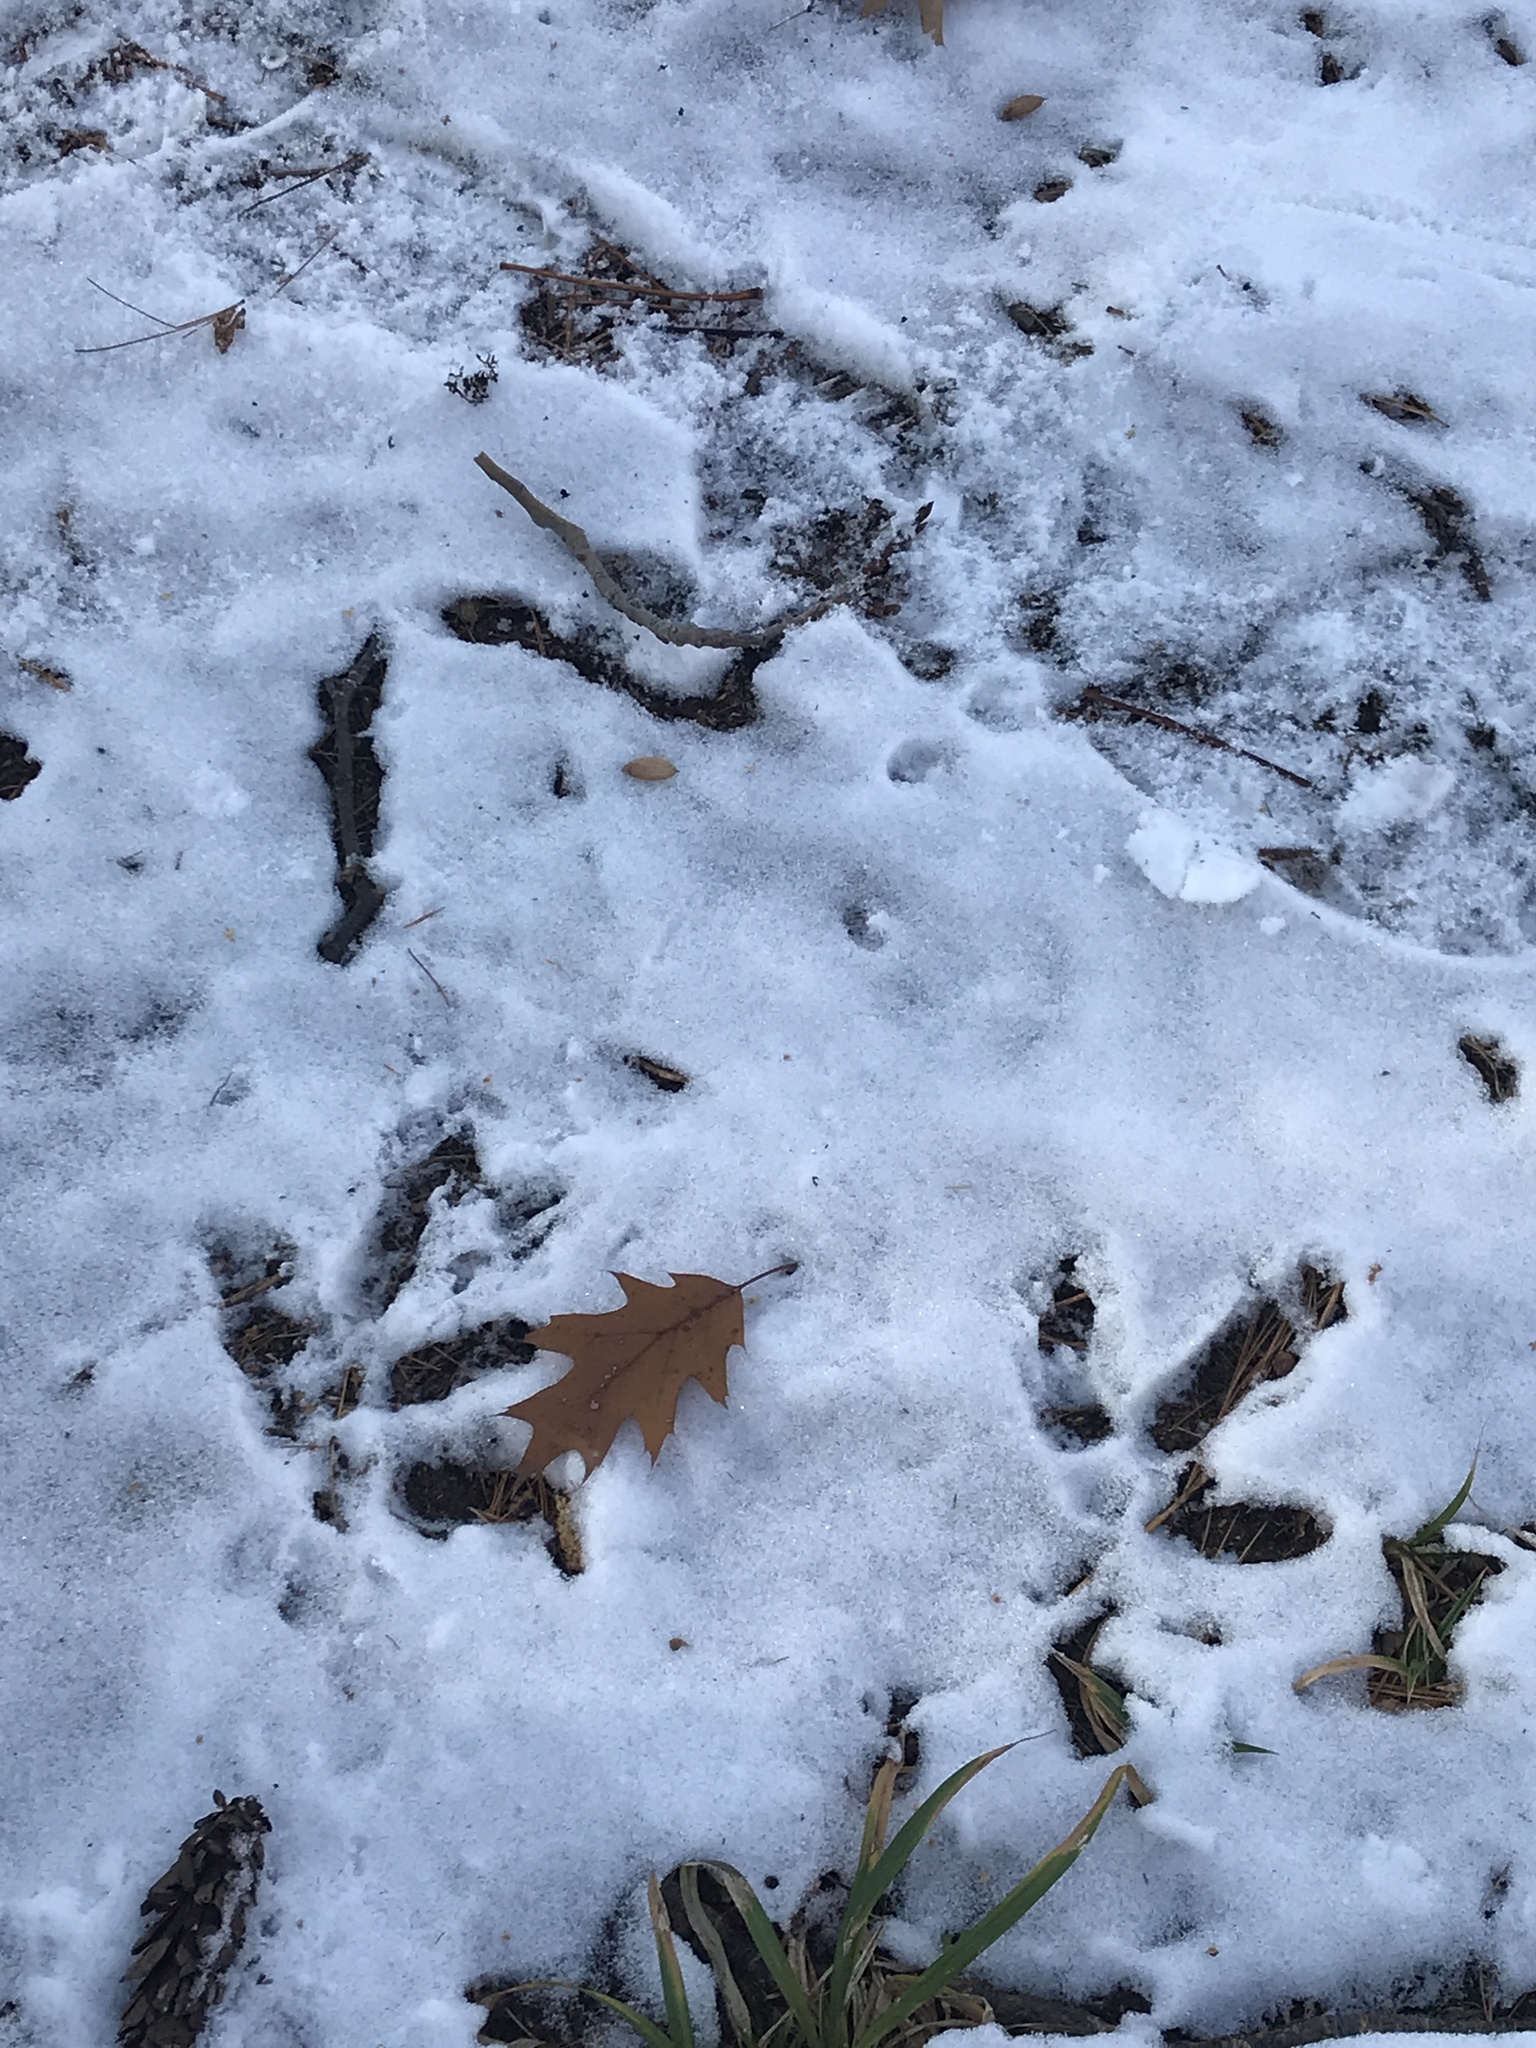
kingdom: Animalia
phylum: Chordata
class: Aves
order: Galliformes
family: Phasianidae
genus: Meleagris
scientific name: Meleagris gallopavo
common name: Wild turkey
